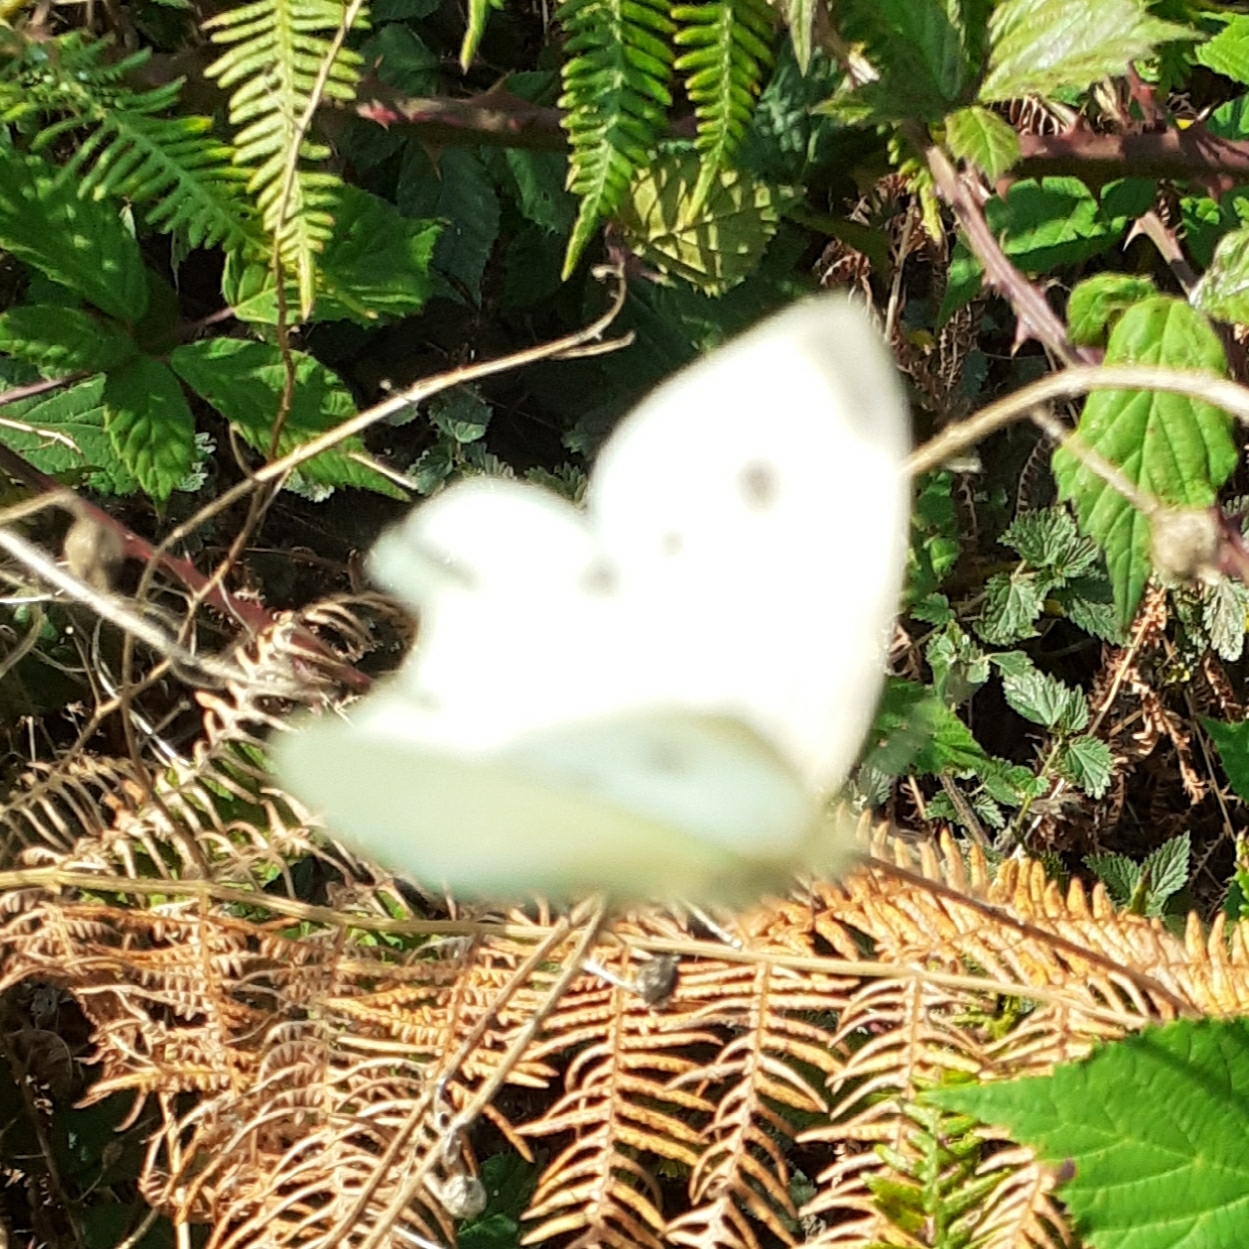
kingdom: Animalia
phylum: Arthropoda
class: Insecta
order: Lepidoptera
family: Pieridae
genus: Pieris
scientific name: Pieris rapae
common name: Small white
